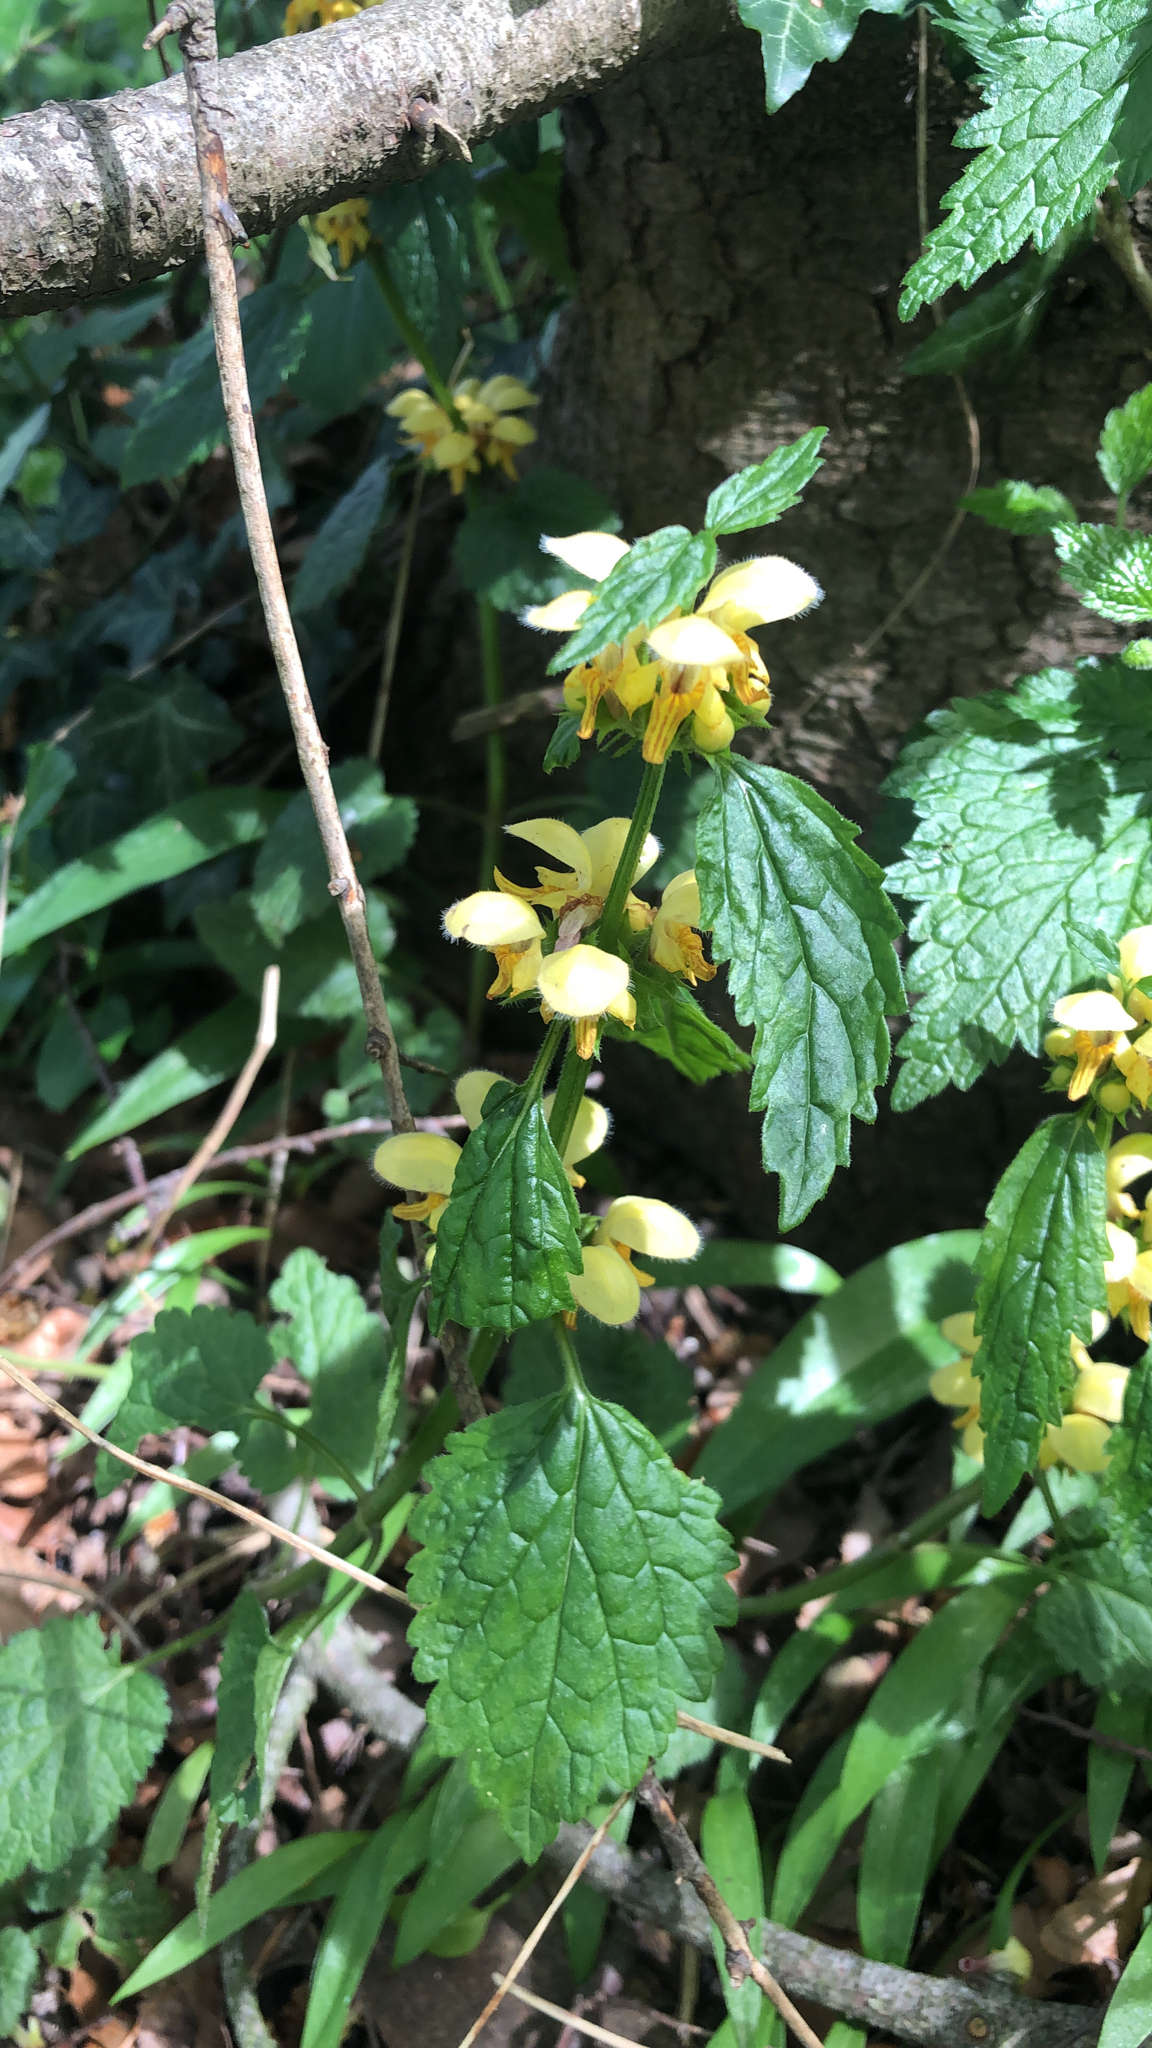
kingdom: Plantae
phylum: Tracheophyta
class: Magnoliopsida
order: Lamiales
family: Lamiaceae
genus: Lamium
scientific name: Lamium galeobdolon
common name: Yellow archangel
